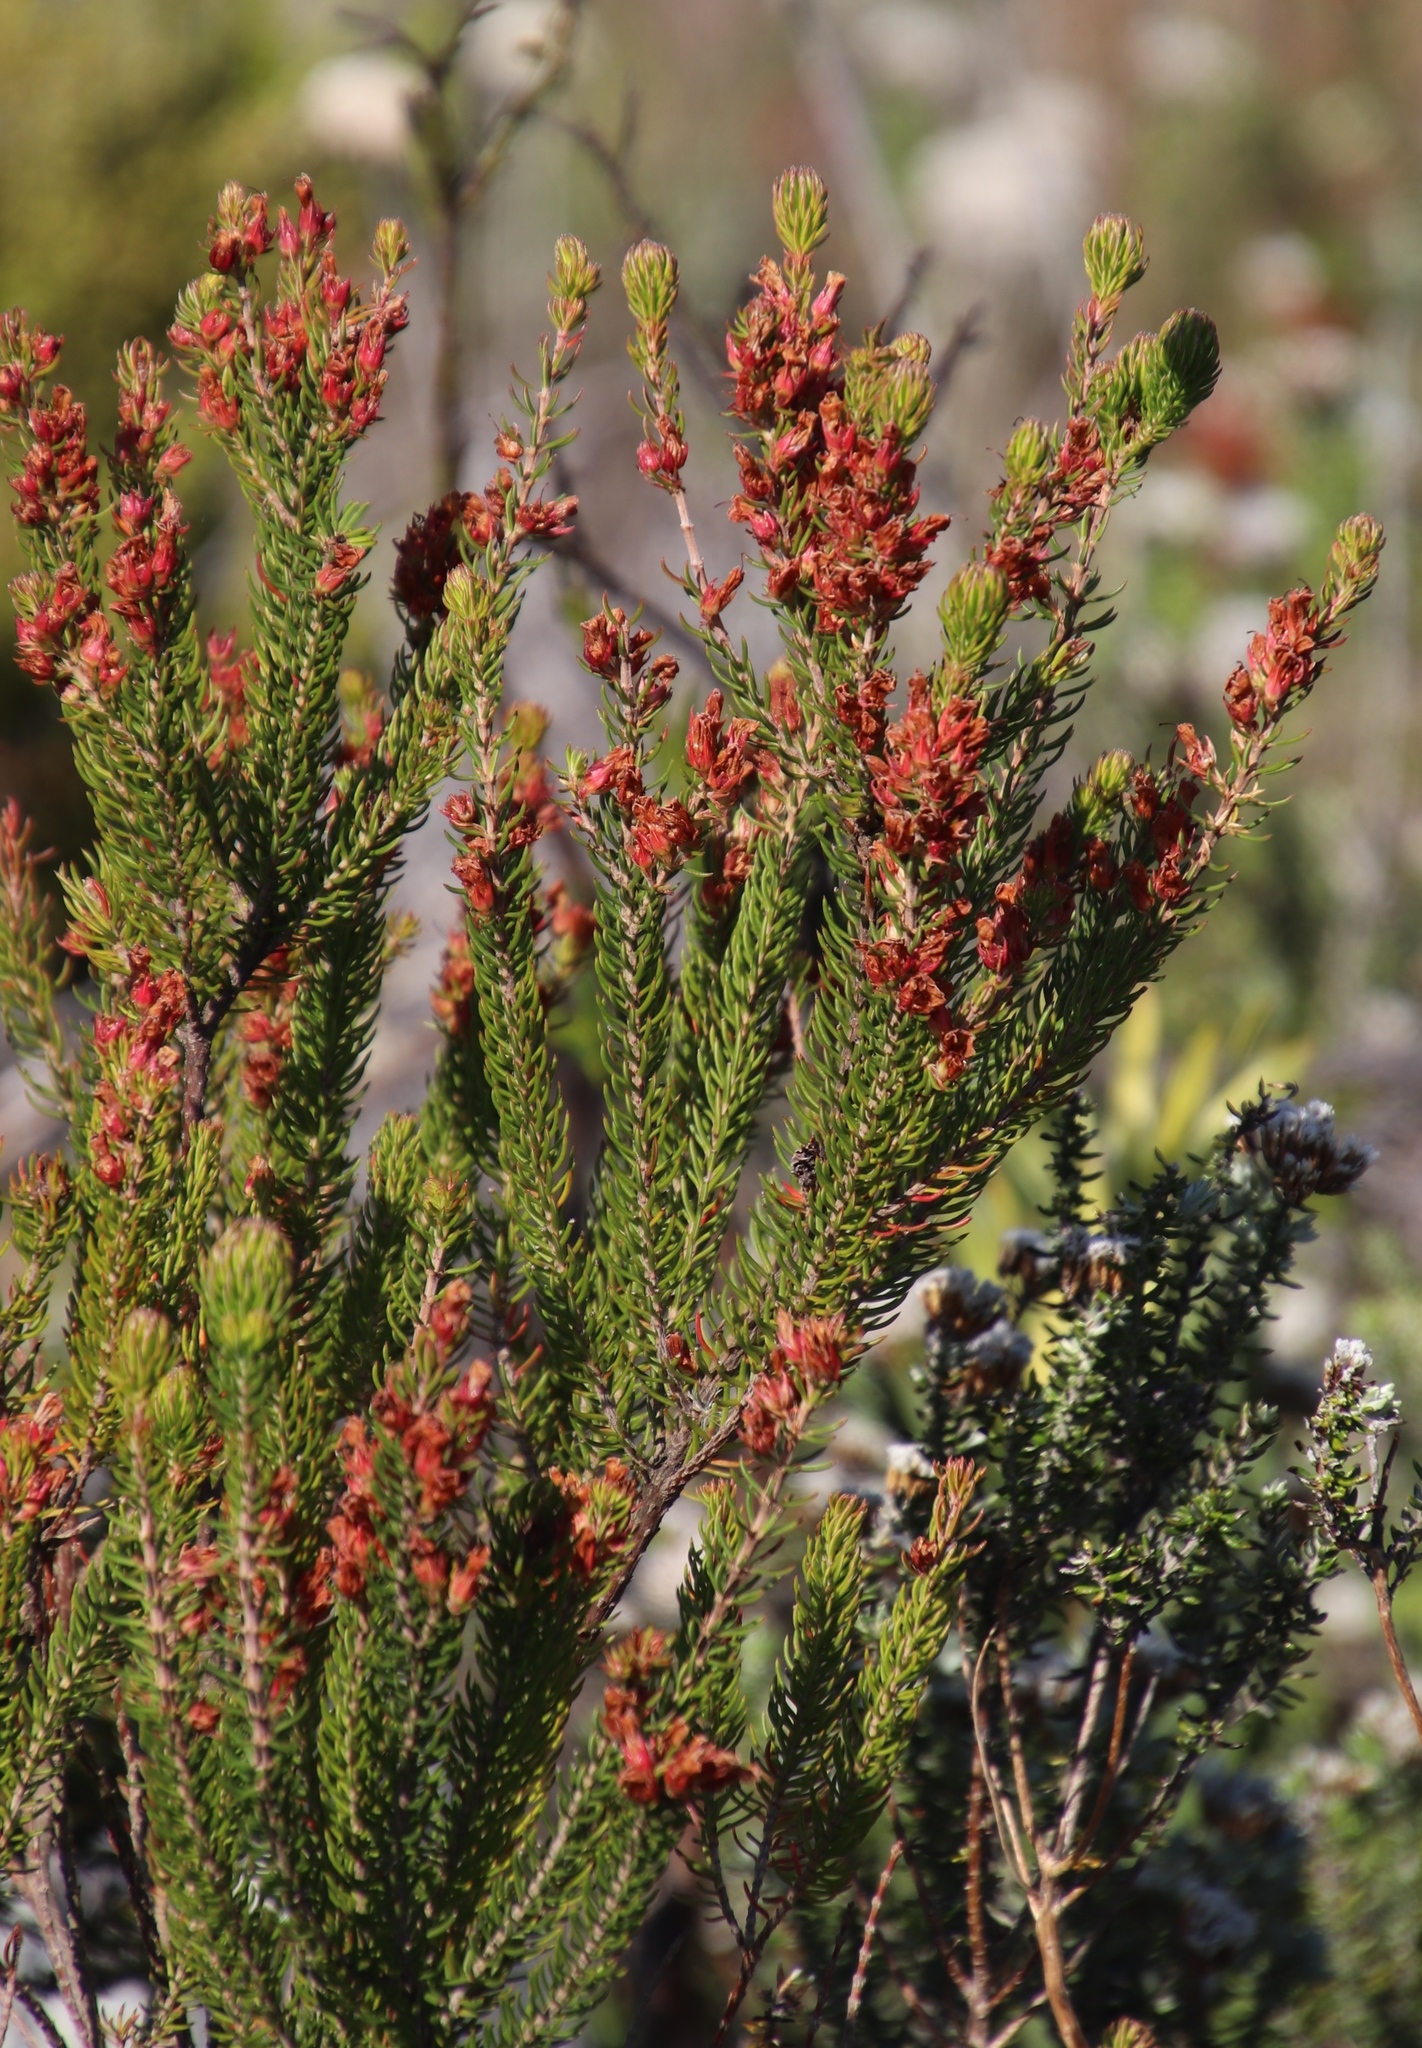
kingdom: Plantae
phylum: Tracheophyta
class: Magnoliopsida
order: Ericales
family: Ericaceae
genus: Erica
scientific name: Erica abietina
